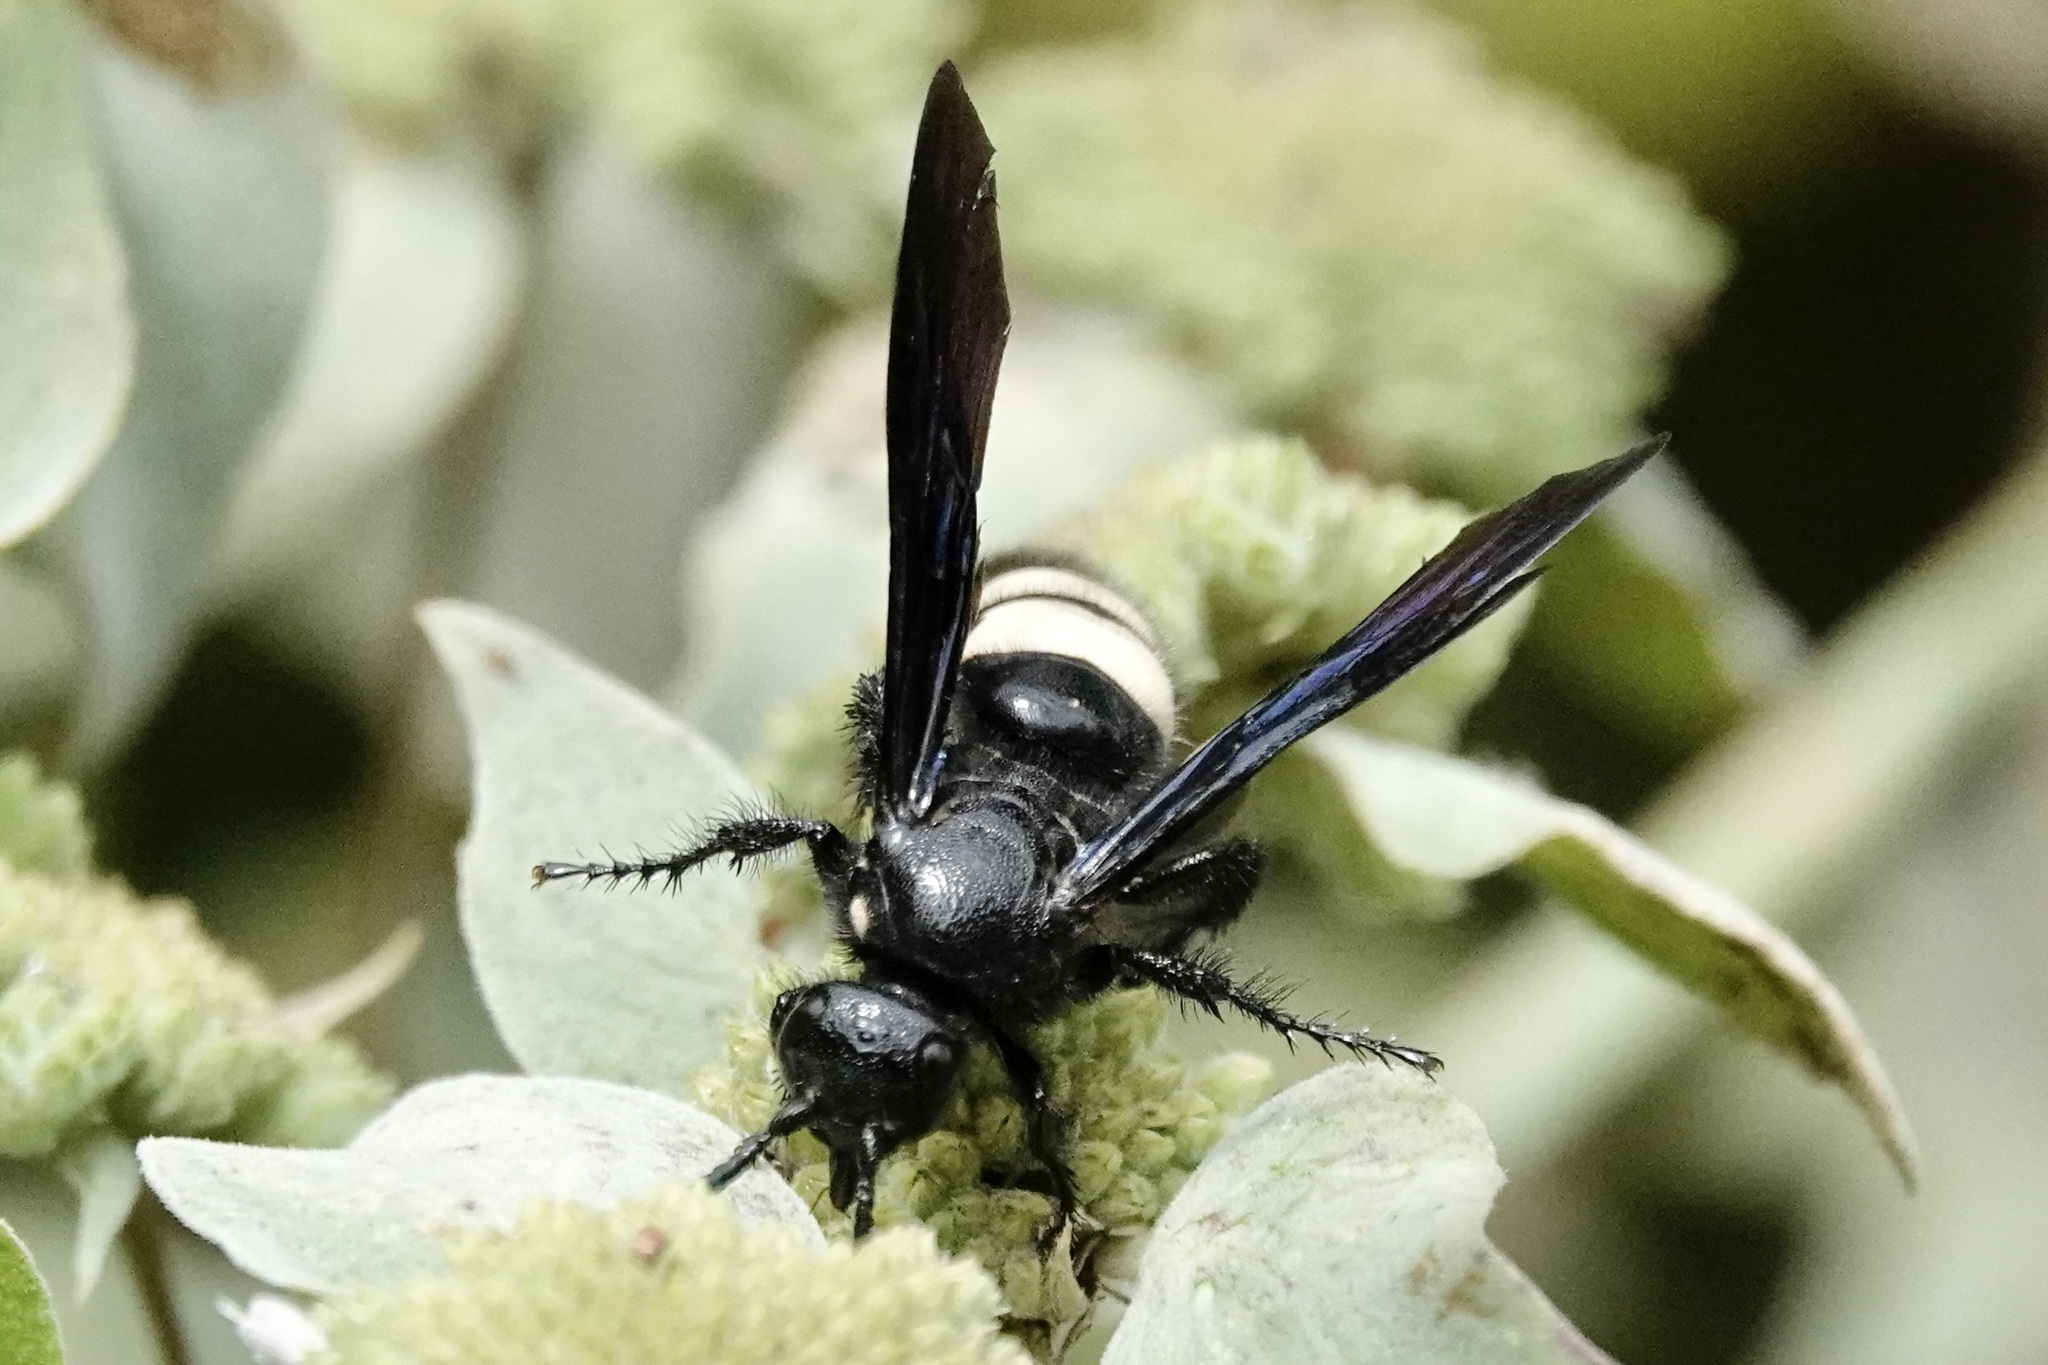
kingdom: Animalia
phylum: Arthropoda
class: Insecta
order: Hymenoptera
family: Scoliidae
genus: Scolia
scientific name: Scolia bicincta
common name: Double-banded scoliid wasp
